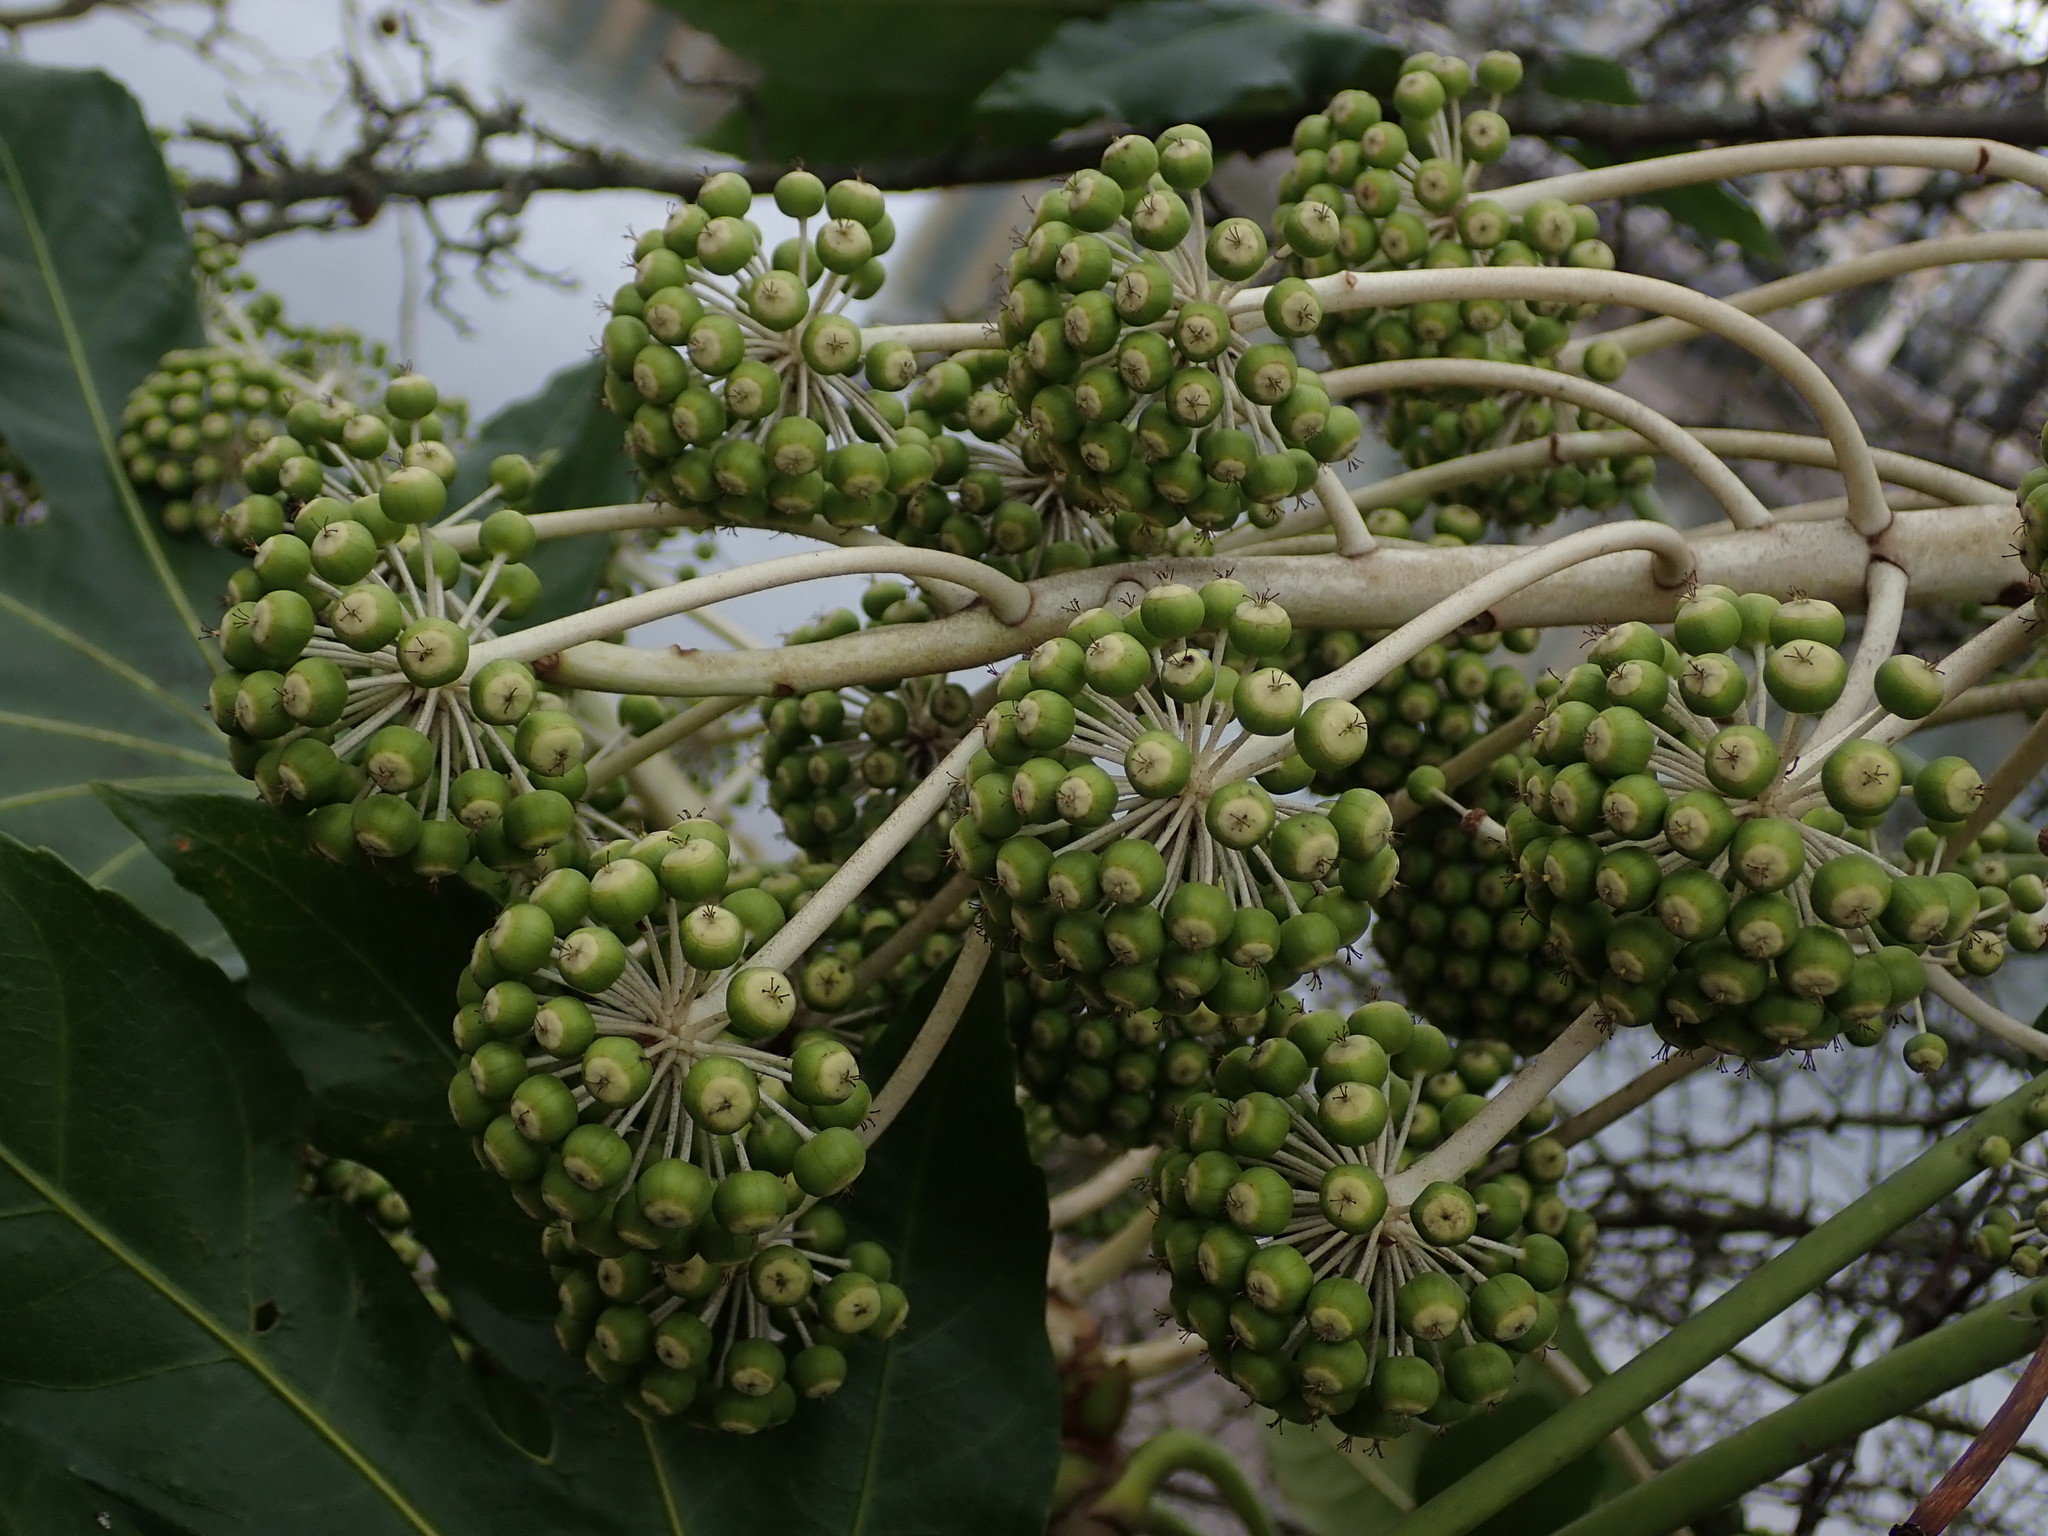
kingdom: Plantae
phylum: Tracheophyta
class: Magnoliopsida
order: Apiales
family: Araliaceae
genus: Fatsia
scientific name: Fatsia japonica
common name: Fatsia
